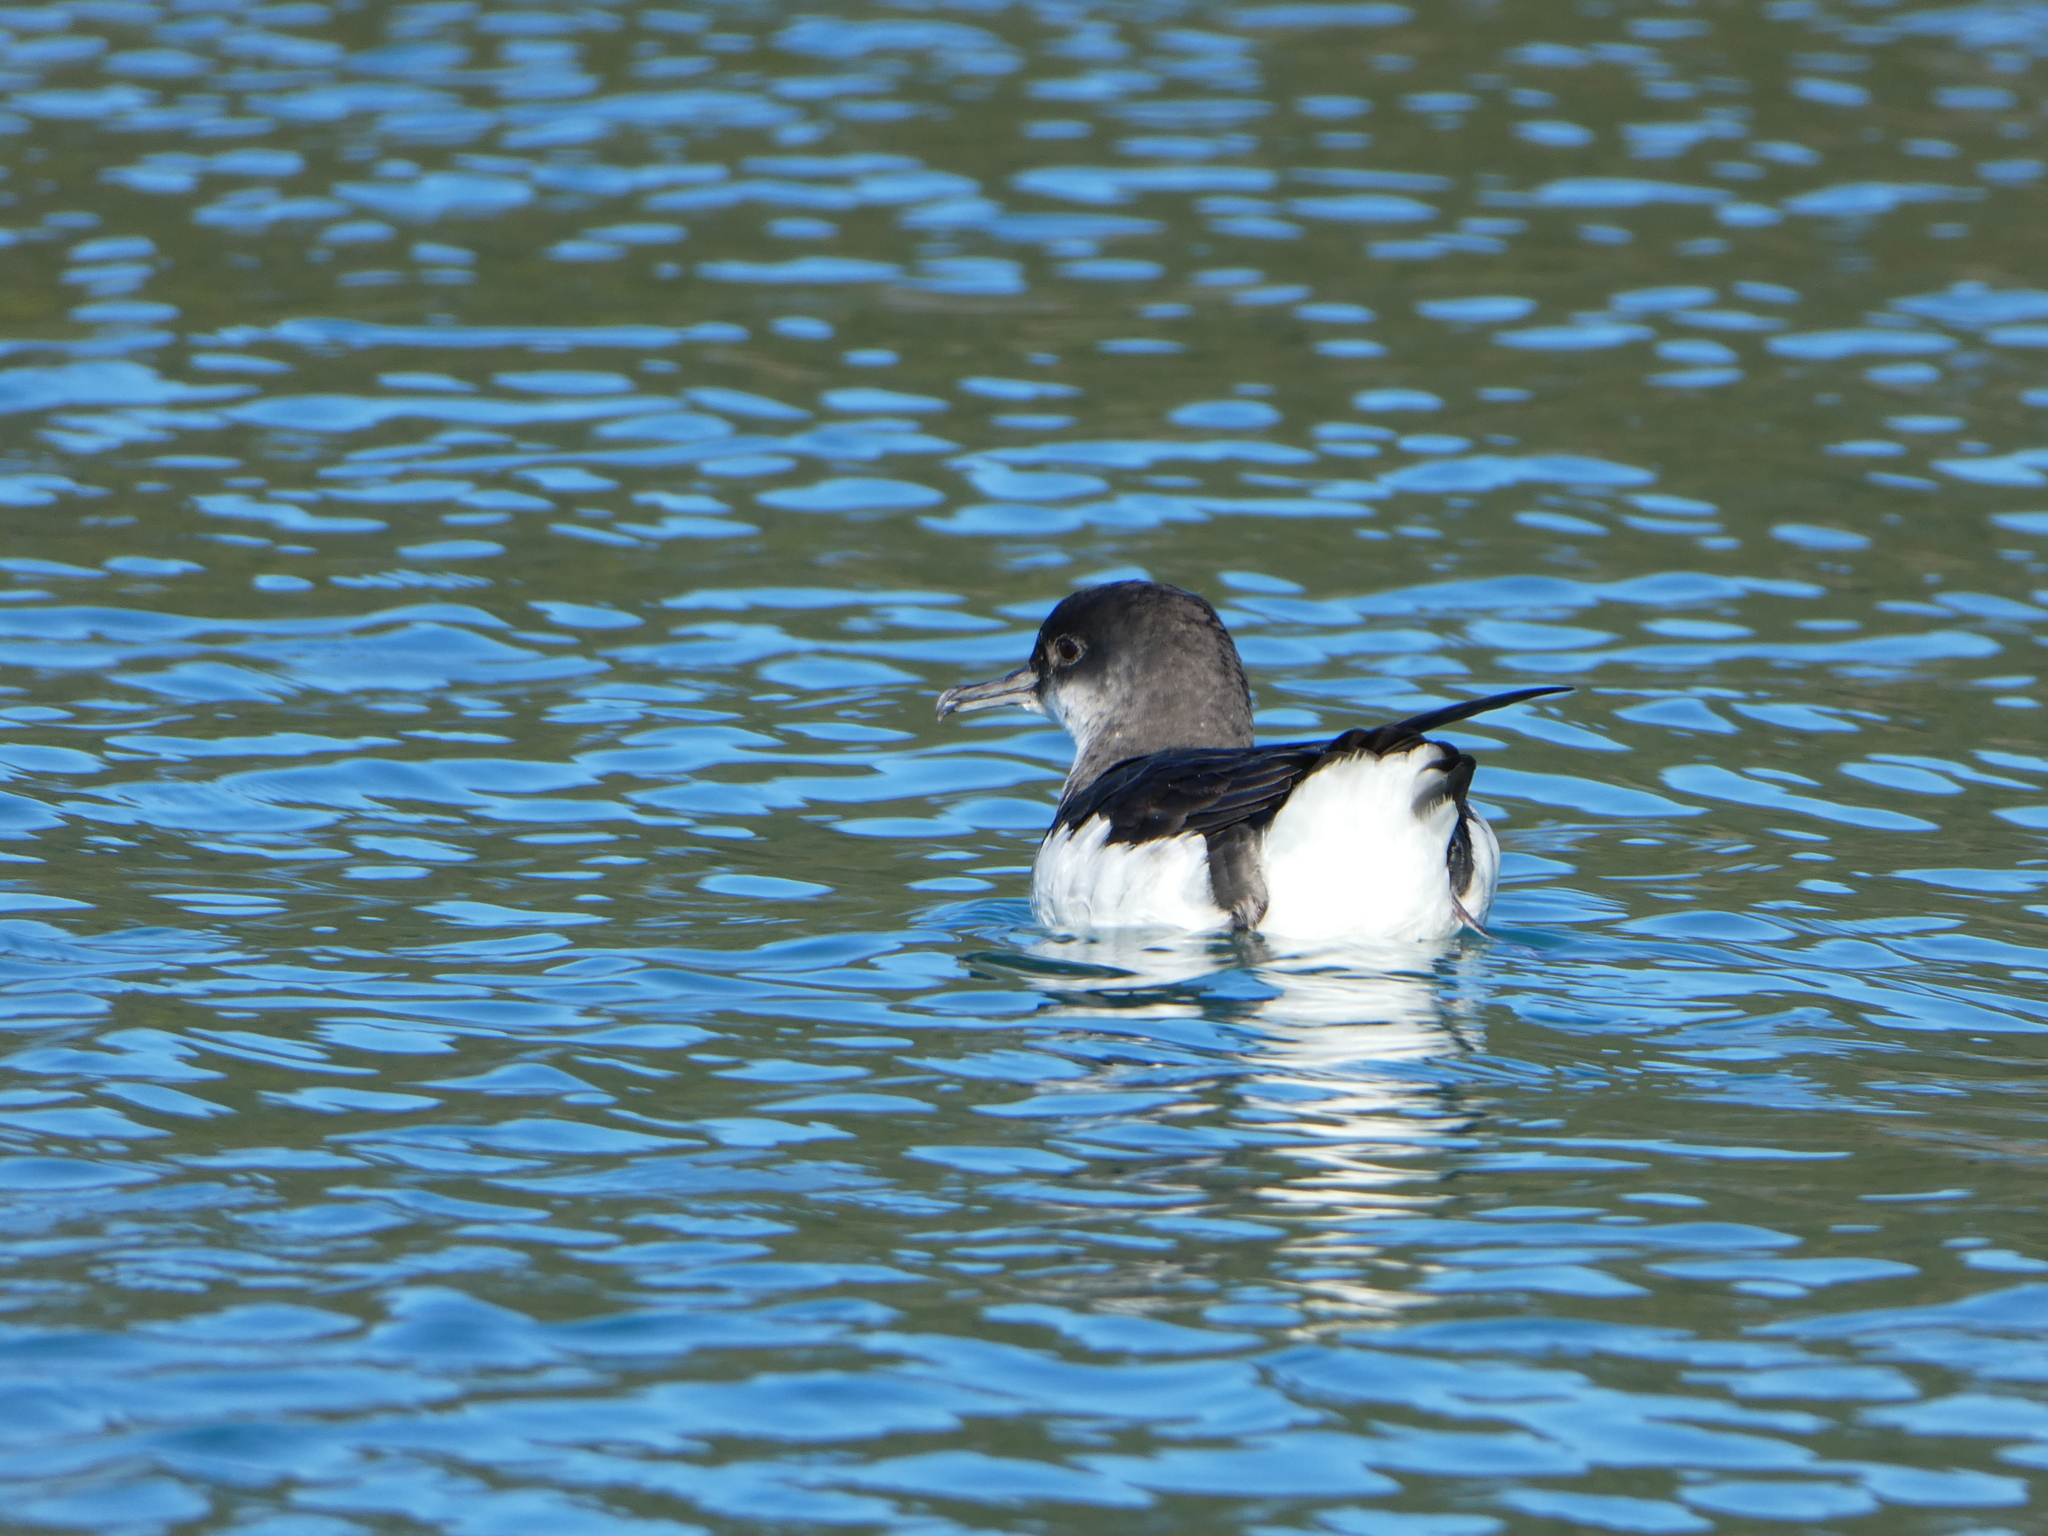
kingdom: Animalia
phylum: Chordata
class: Aves
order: Procellariiformes
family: Procellariidae
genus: Puffinus
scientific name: Puffinus gavia
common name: Fluttering shearwater
